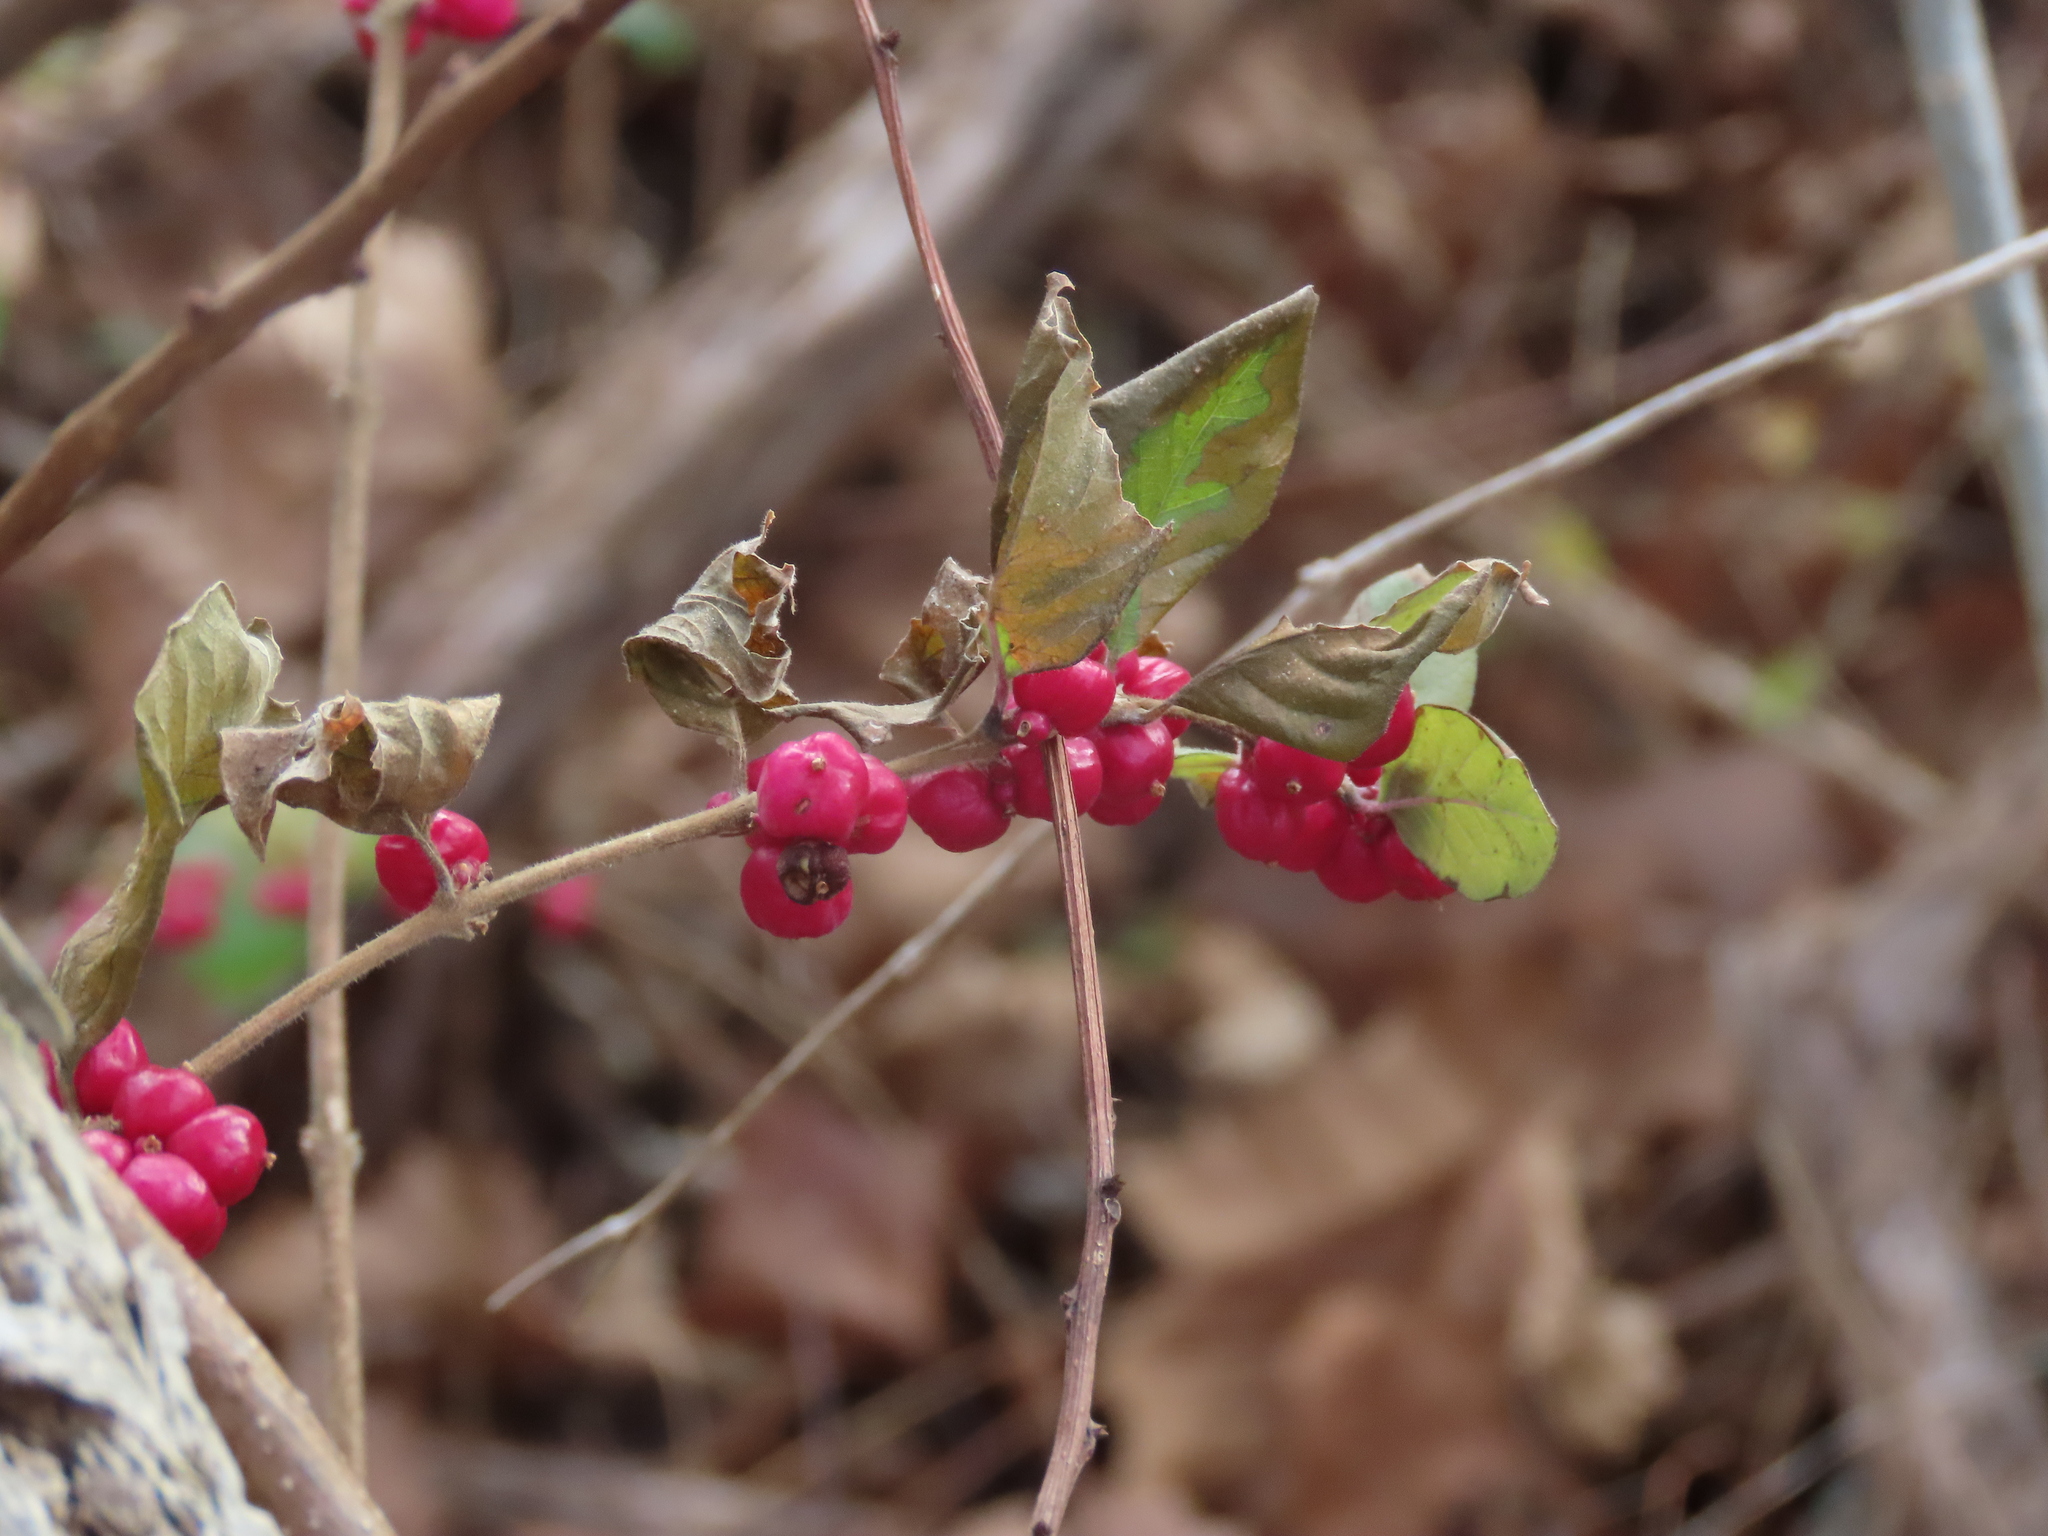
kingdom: Plantae
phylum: Tracheophyta
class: Magnoliopsida
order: Dipsacales
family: Caprifoliaceae
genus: Symphoricarpos
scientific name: Symphoricarpos orbiculatus
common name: Coralberry
